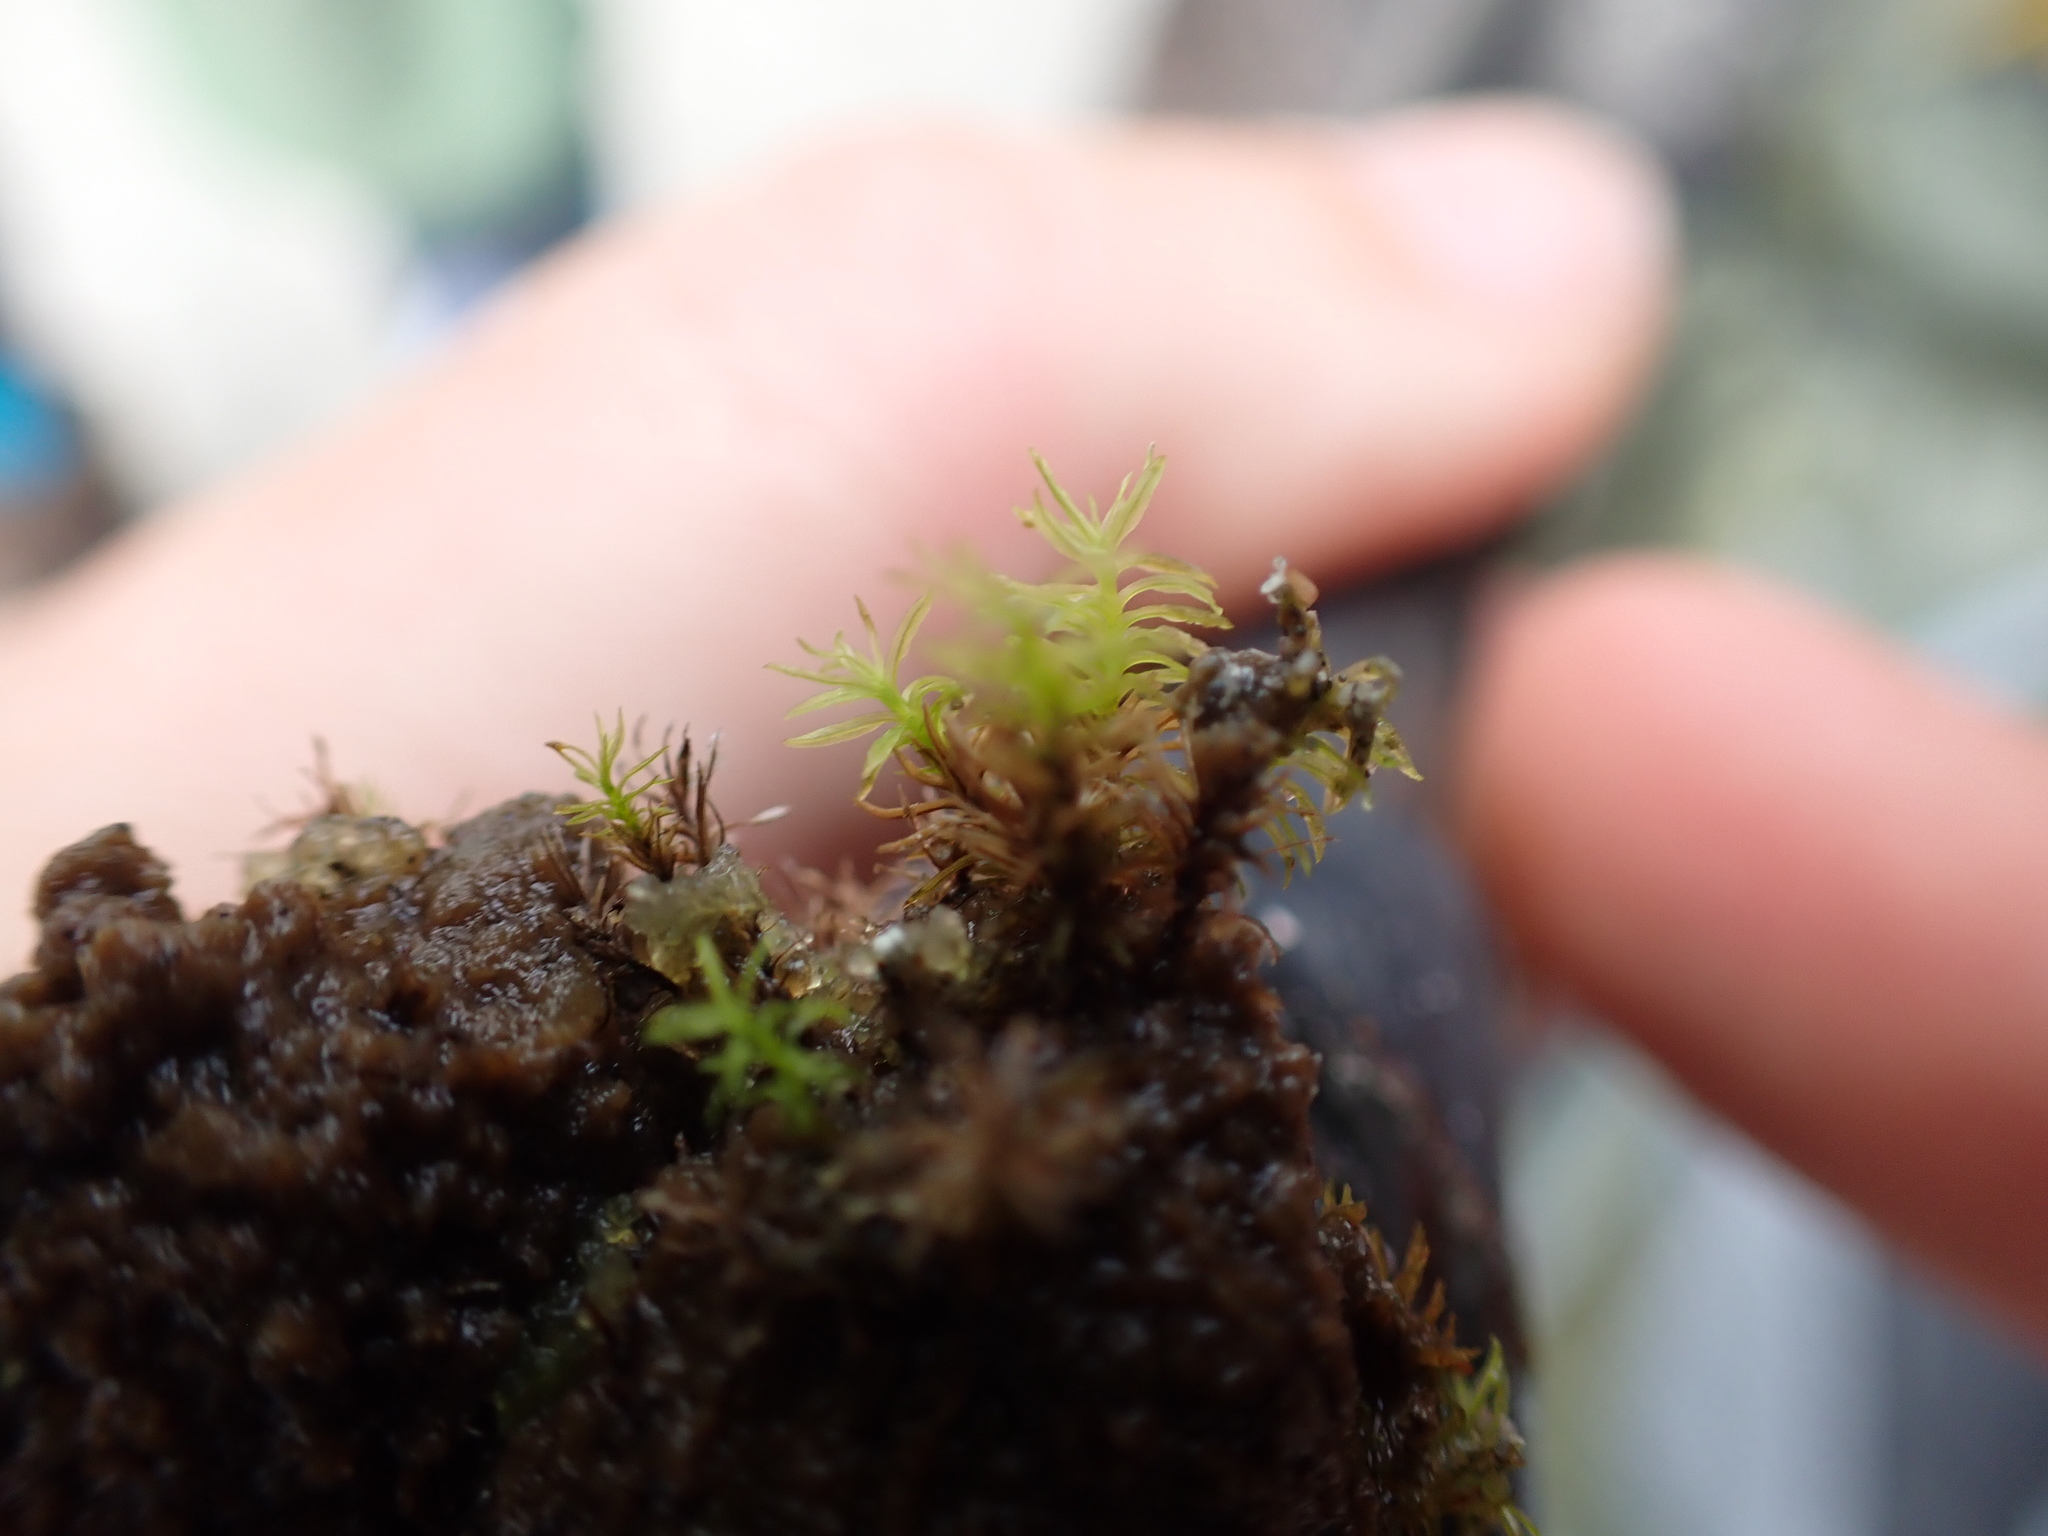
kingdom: Plantae
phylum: Bryophyta
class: Bryopsida
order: Pottiales
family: Pottiaceae
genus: Eucladium
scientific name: Eucladium verticillatum
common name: Whorled tufa-moss
